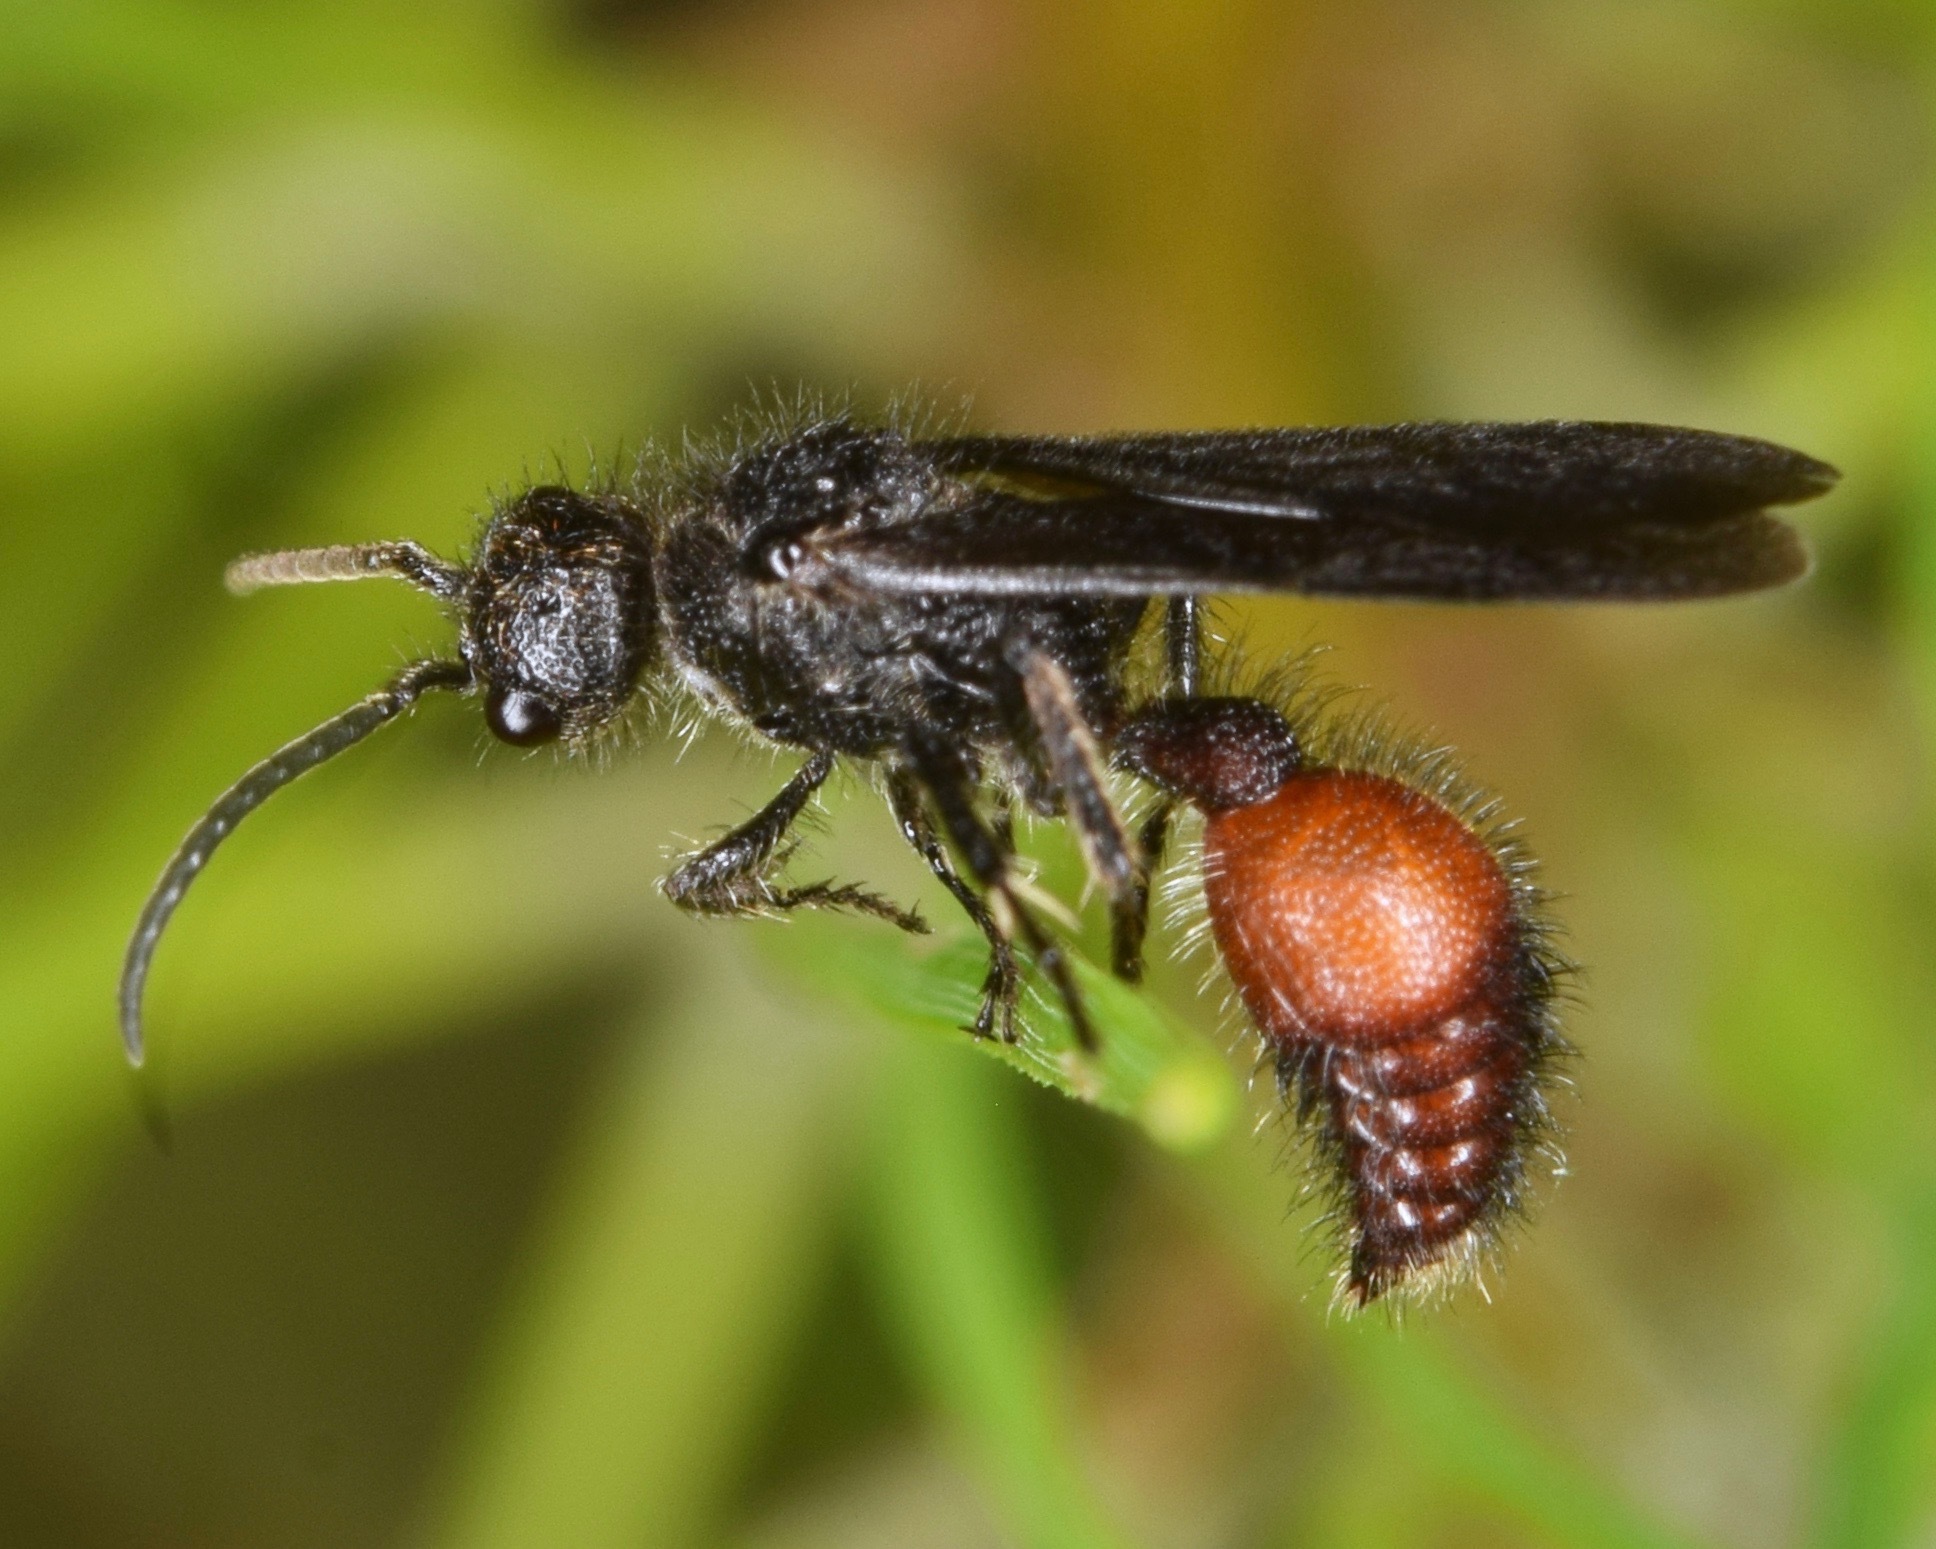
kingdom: Animalia
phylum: Arthropoda
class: Insecta
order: Hymenoptera
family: Mutillidae
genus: Dasymutilla
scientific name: Dasymutilla
